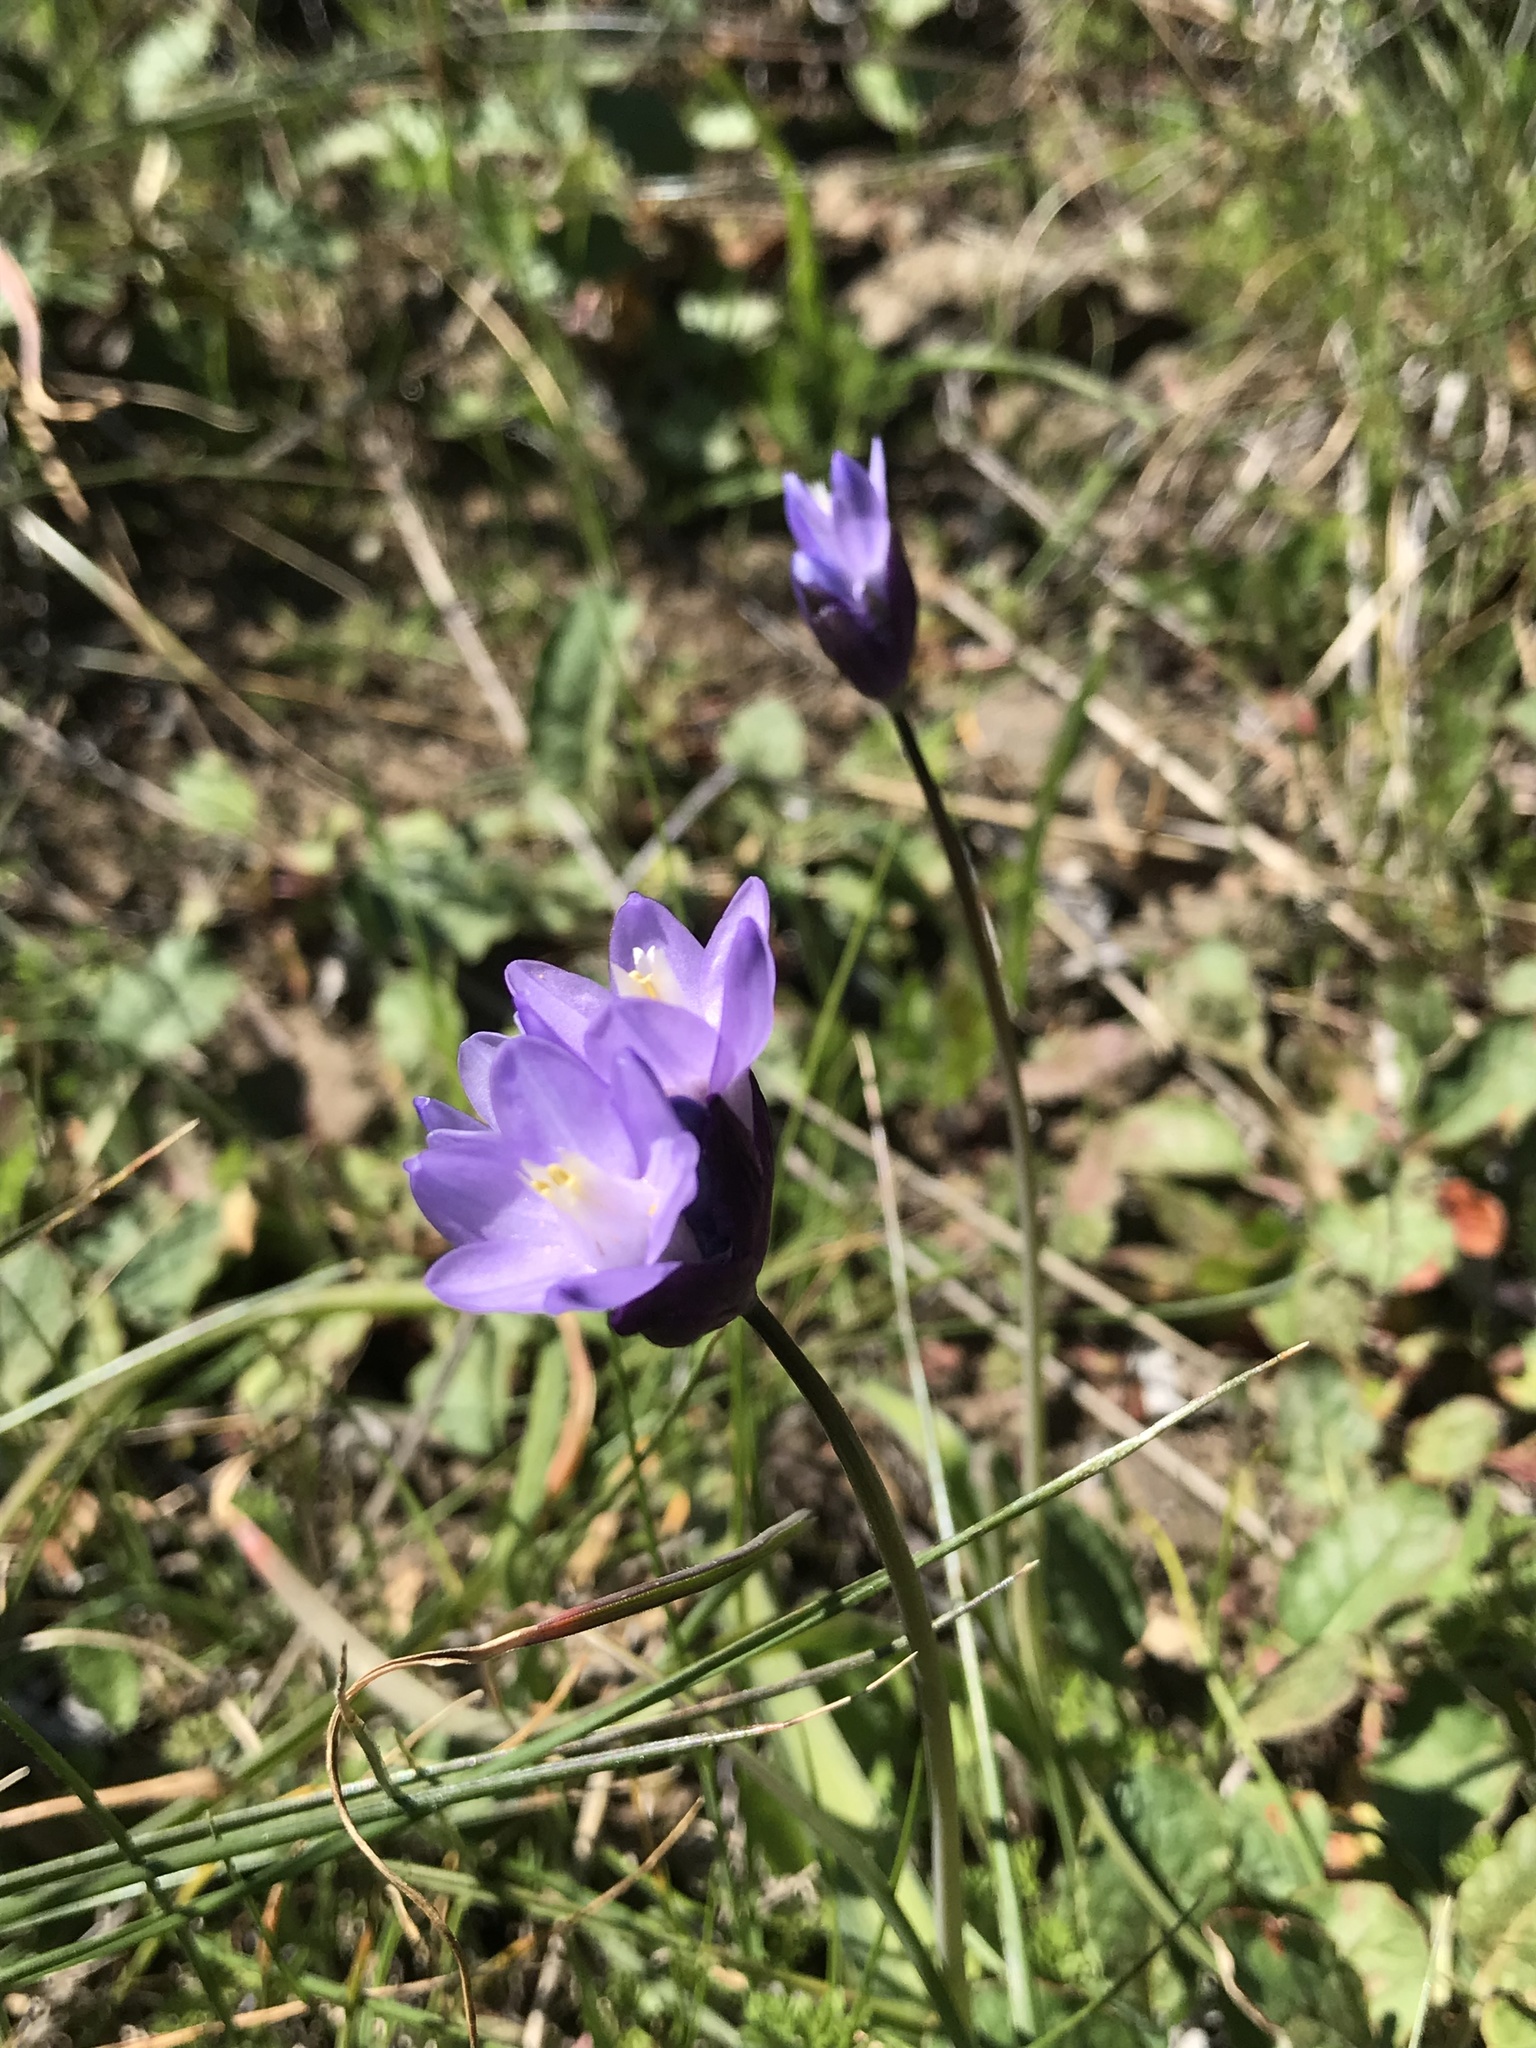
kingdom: Plantae
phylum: Tracheophyta
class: Liliopsida
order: Asparagales
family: Asparagaceae
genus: Dipterostemon
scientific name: Dipterostemon capitatus
